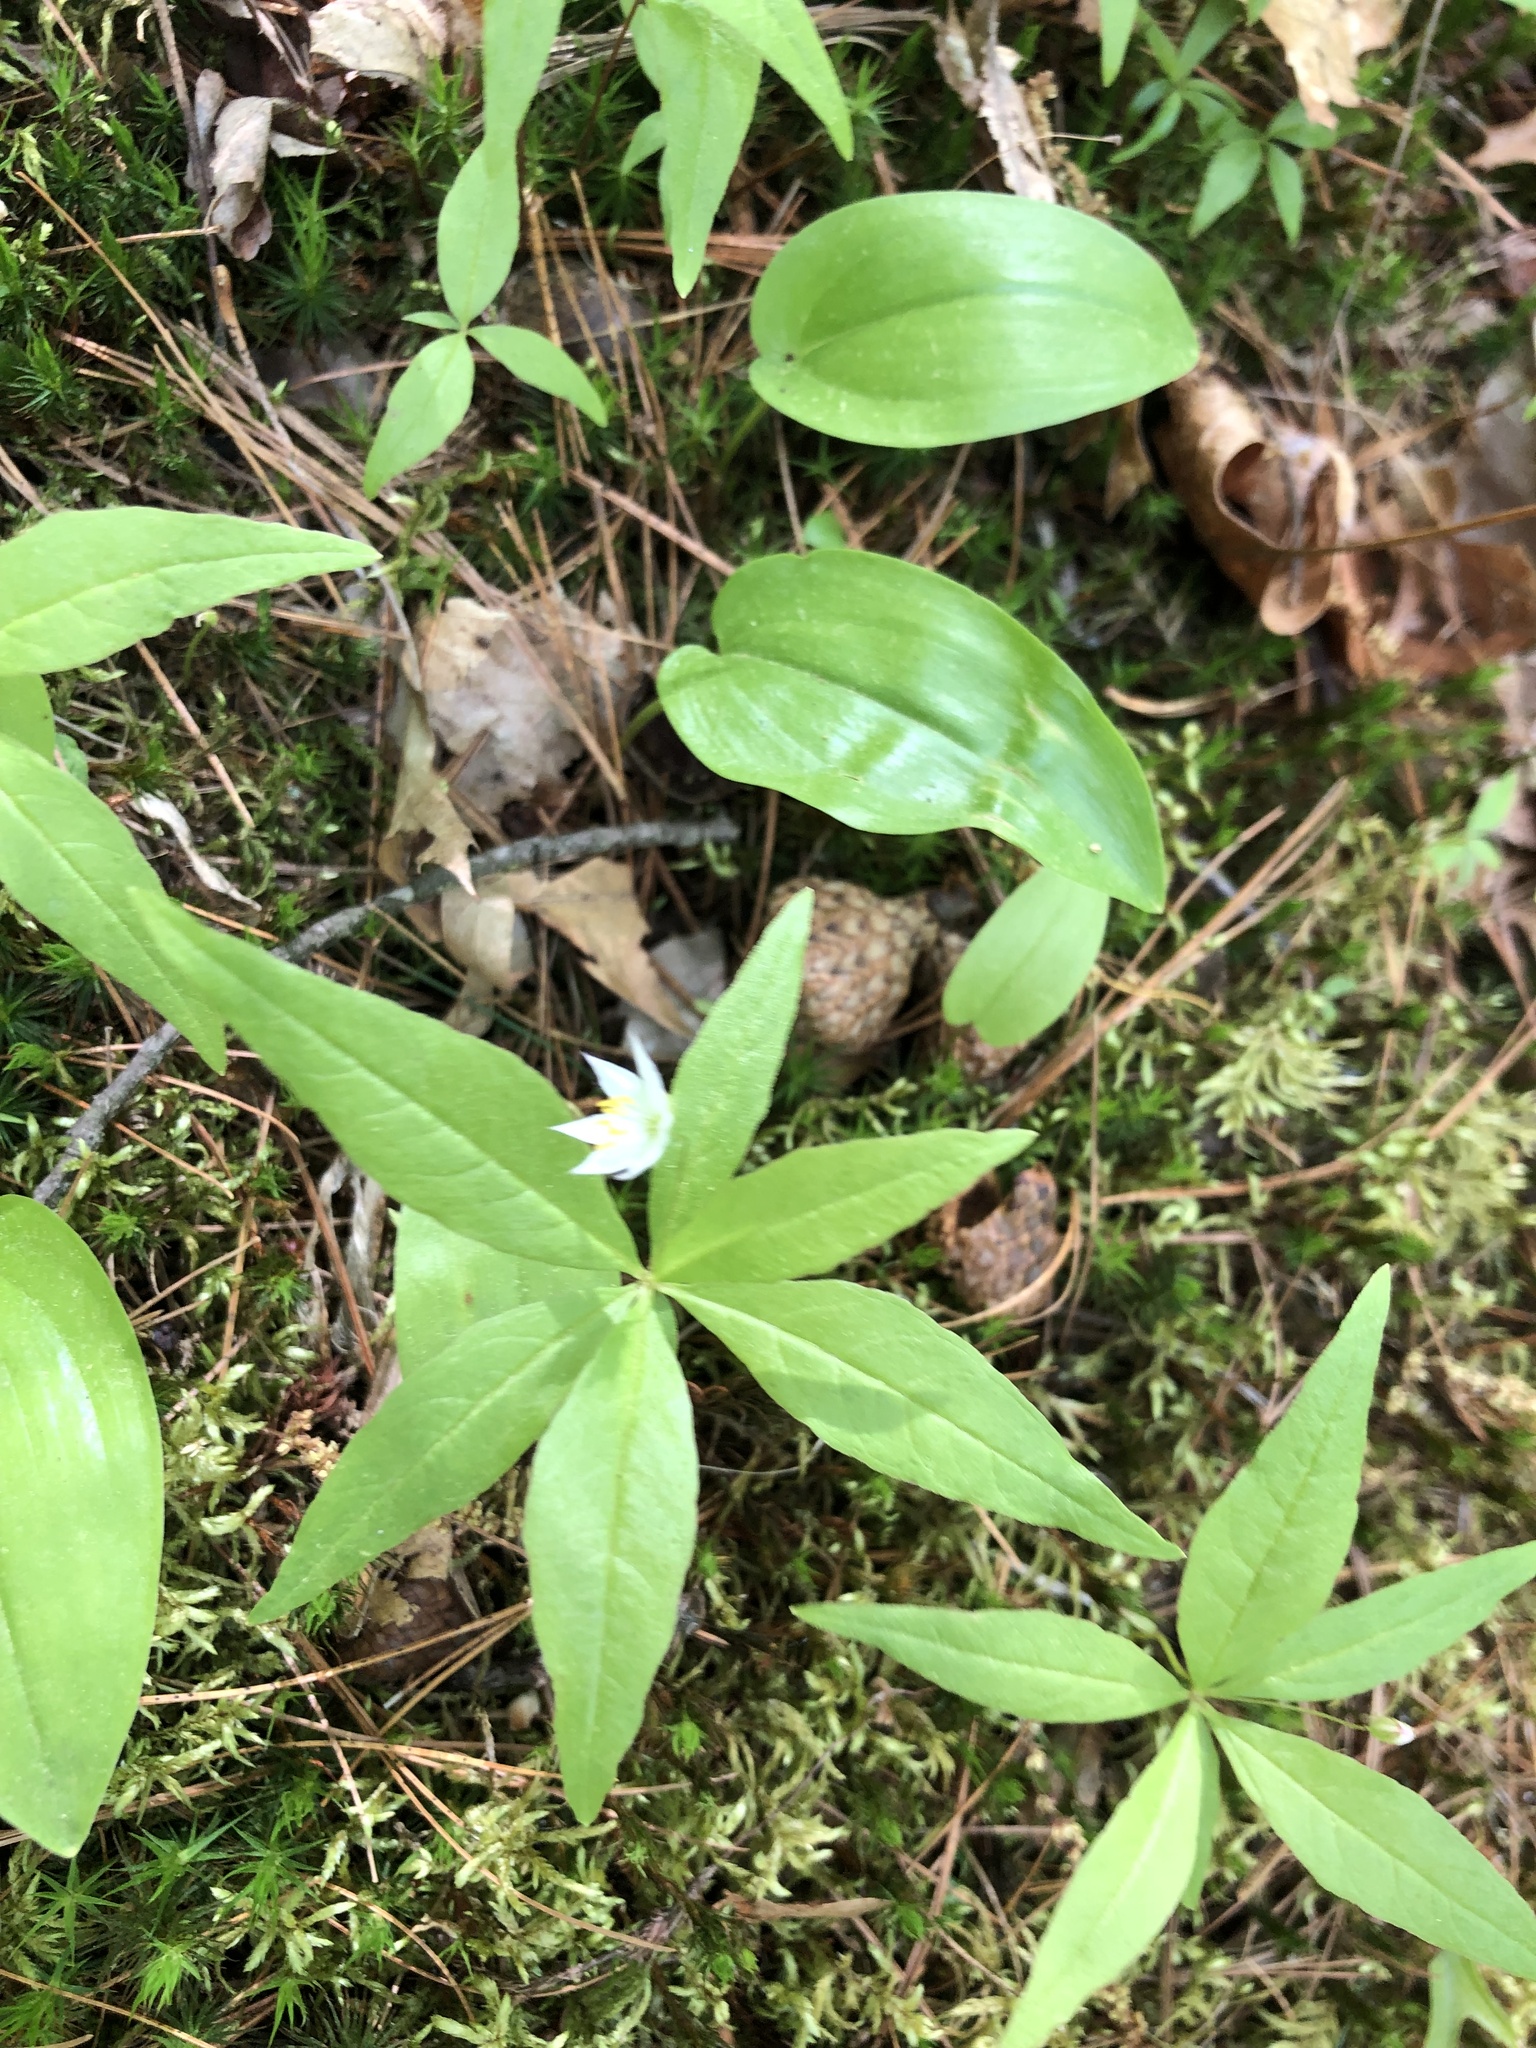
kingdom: Plantae
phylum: Tracheophyta
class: Magnoliopsida
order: Ericales
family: Primulaceae
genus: Lysimachia
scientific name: Lysimachia borealis
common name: American starflower
